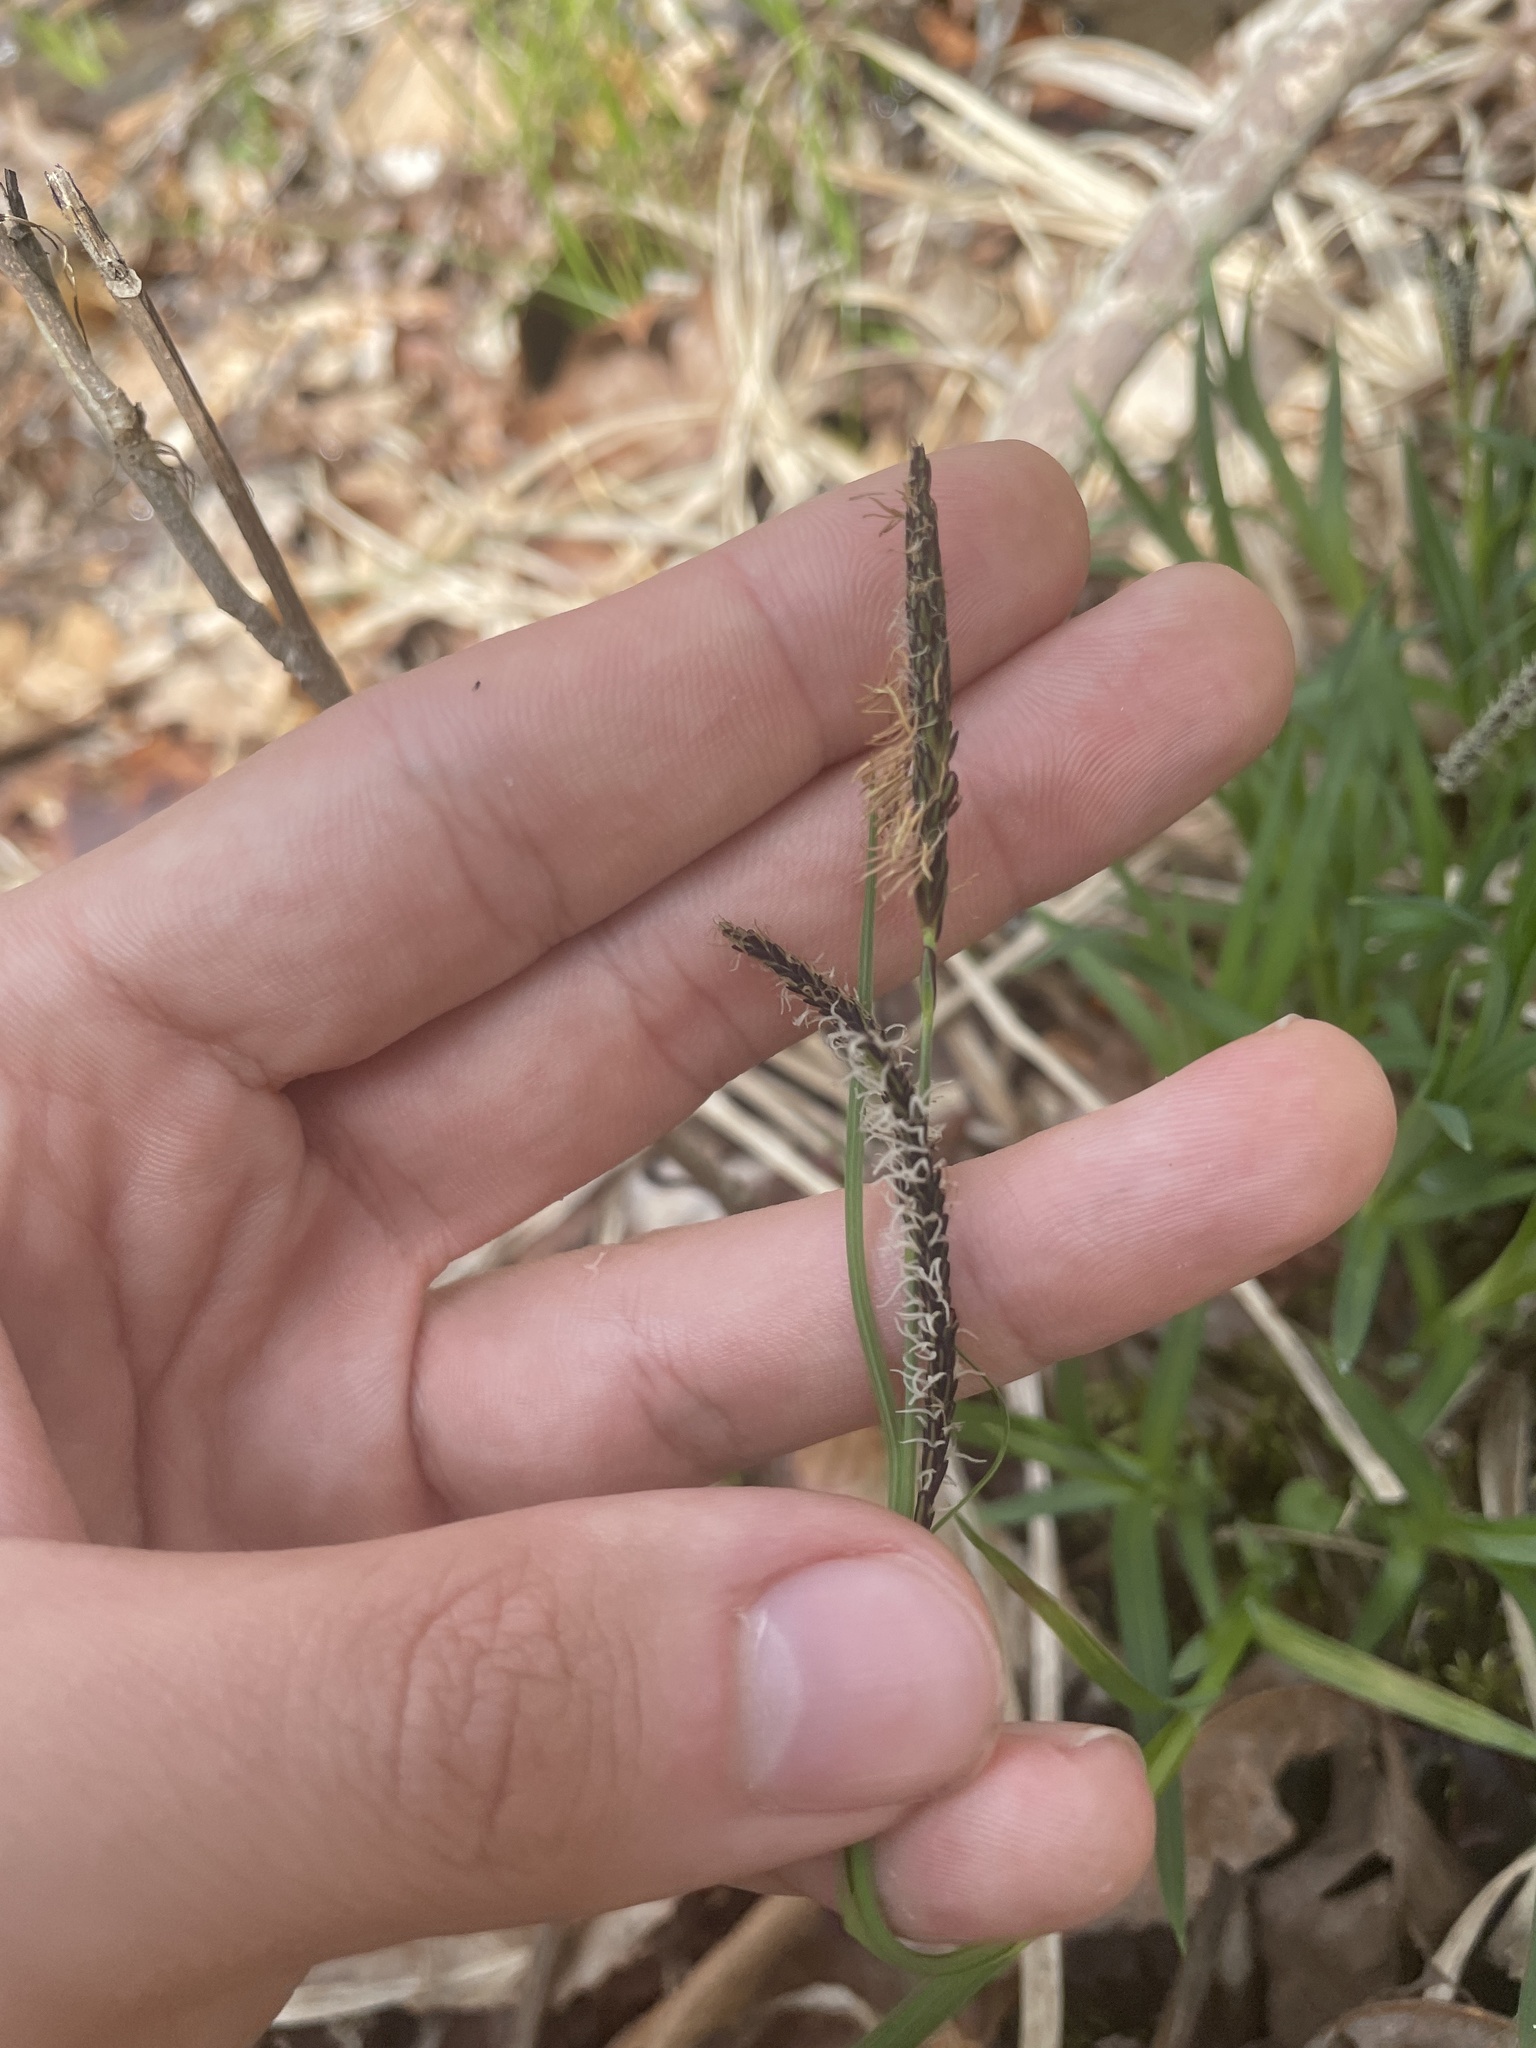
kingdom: Plantae
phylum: Tracheophyta
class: Liliopsida
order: Poales
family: Cyperaceae
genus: Carex
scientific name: Carex torta
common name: Twisted sedge
